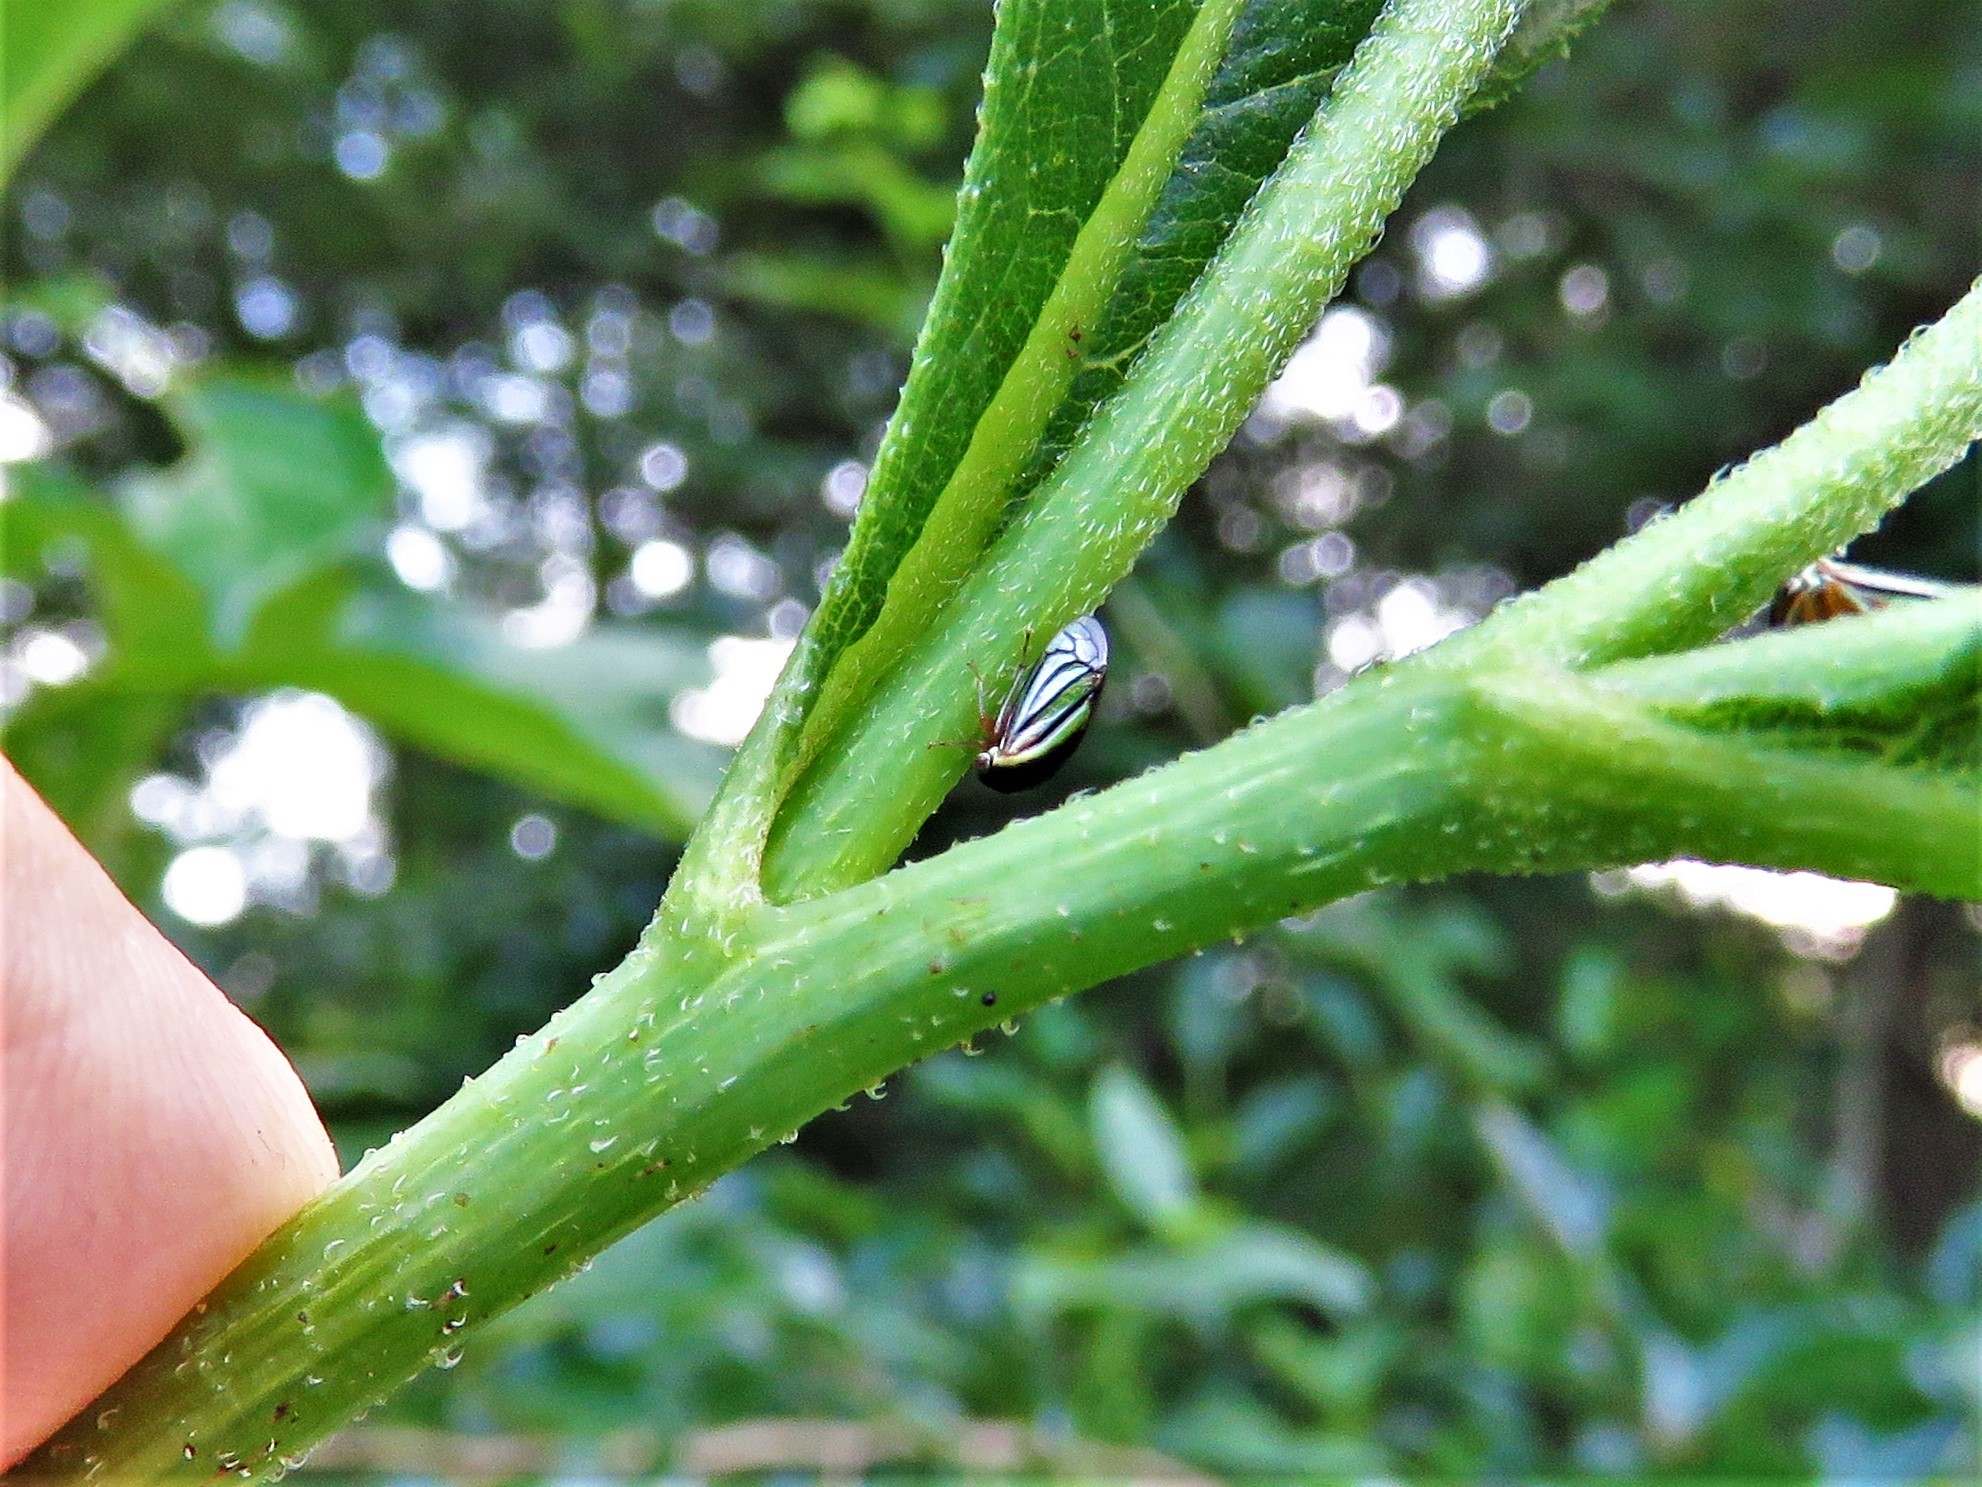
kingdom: Animalia
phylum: Arthropoda
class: Insecta
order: Hemiptera
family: Membracidae
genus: Acutalis
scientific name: Acutalis tartarea
